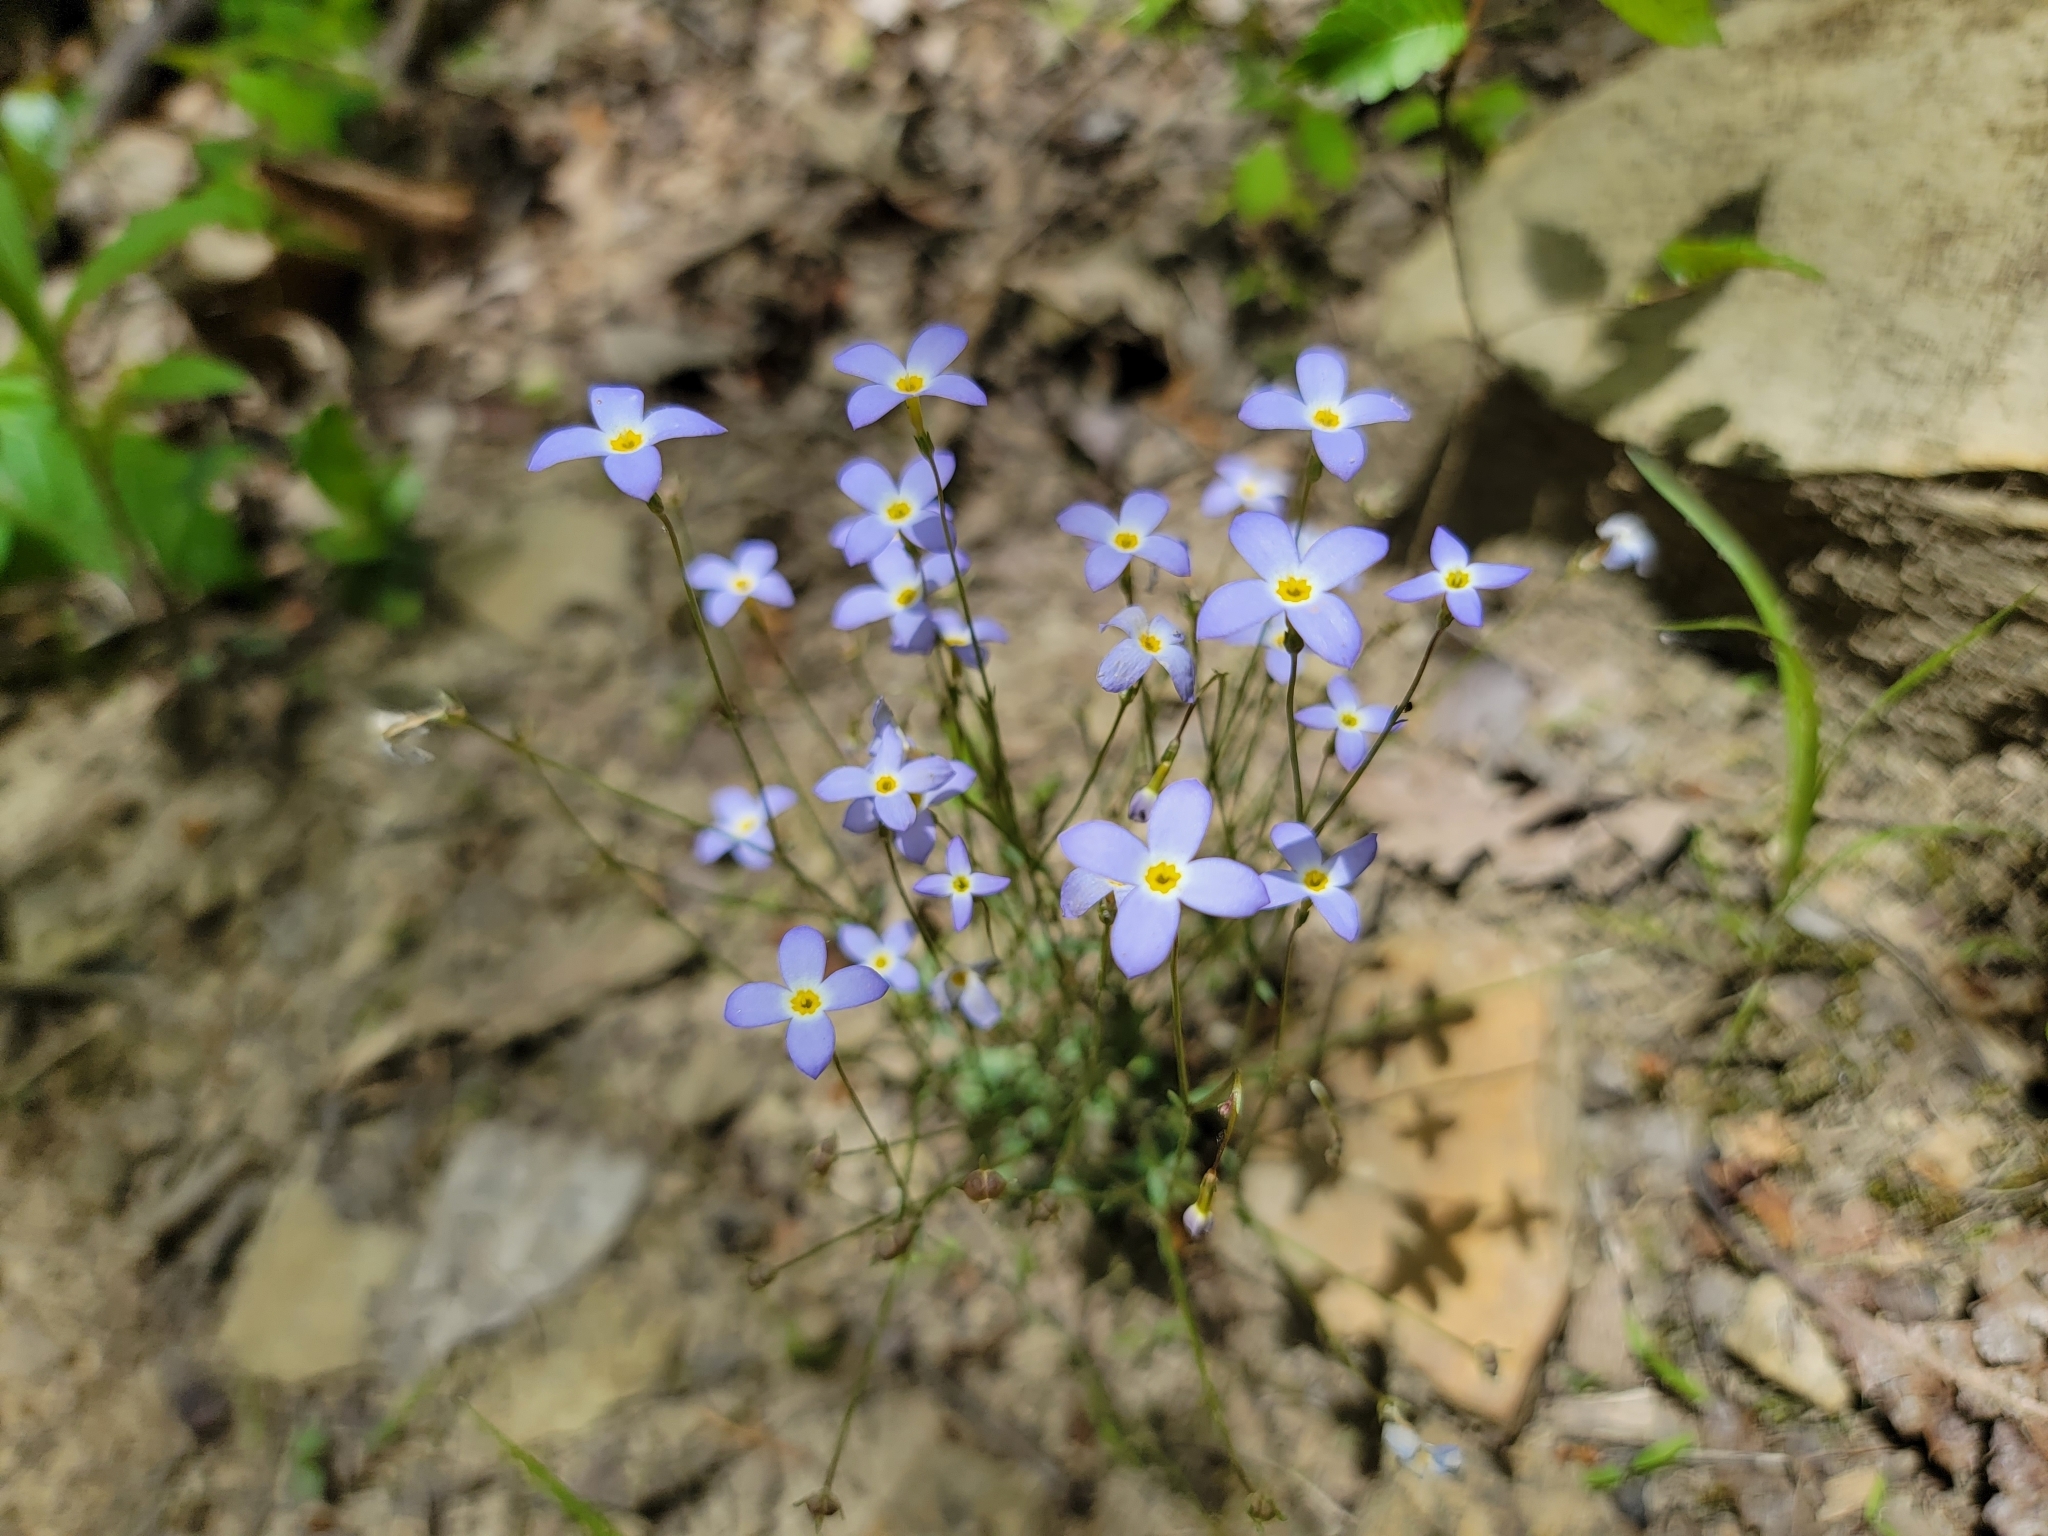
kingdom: Plantae
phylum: Tracheophyta
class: Magnoliopsida
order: Gentianales
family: Rubiaceae
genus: Houstonia
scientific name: Houstonia caerulea
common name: Bluets
